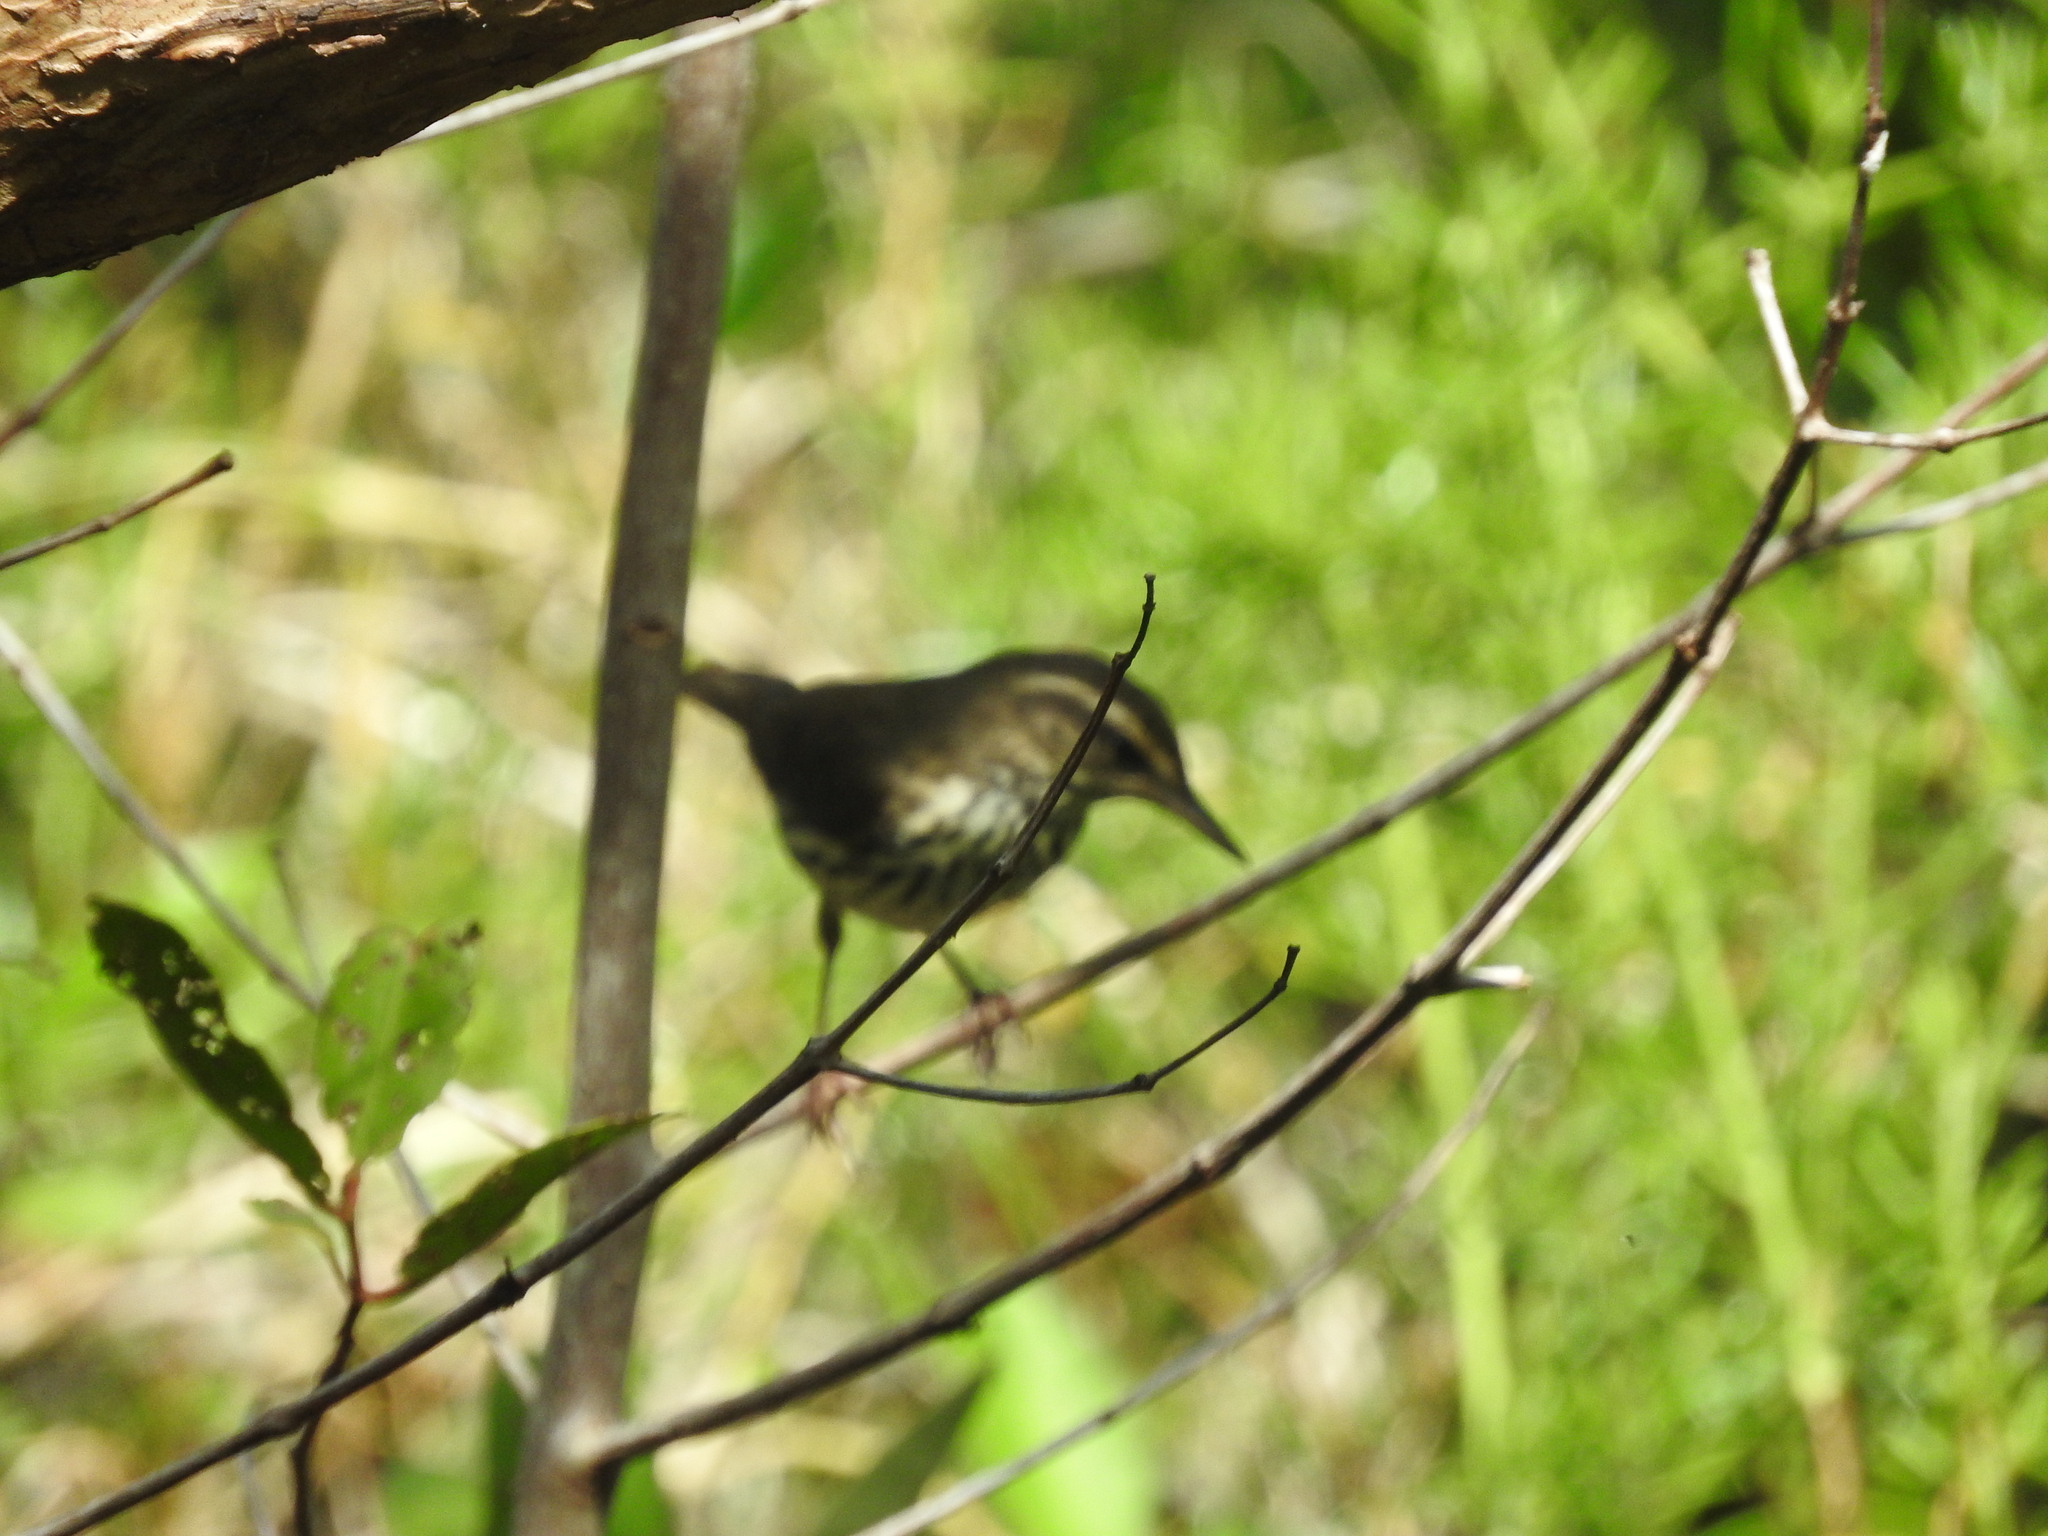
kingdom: Animalia
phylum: Chordata
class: Aves
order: Passeriformes
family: Parulidae
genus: Parkesia
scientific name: Parkesia noveboracensis
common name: Northern waterthrush
